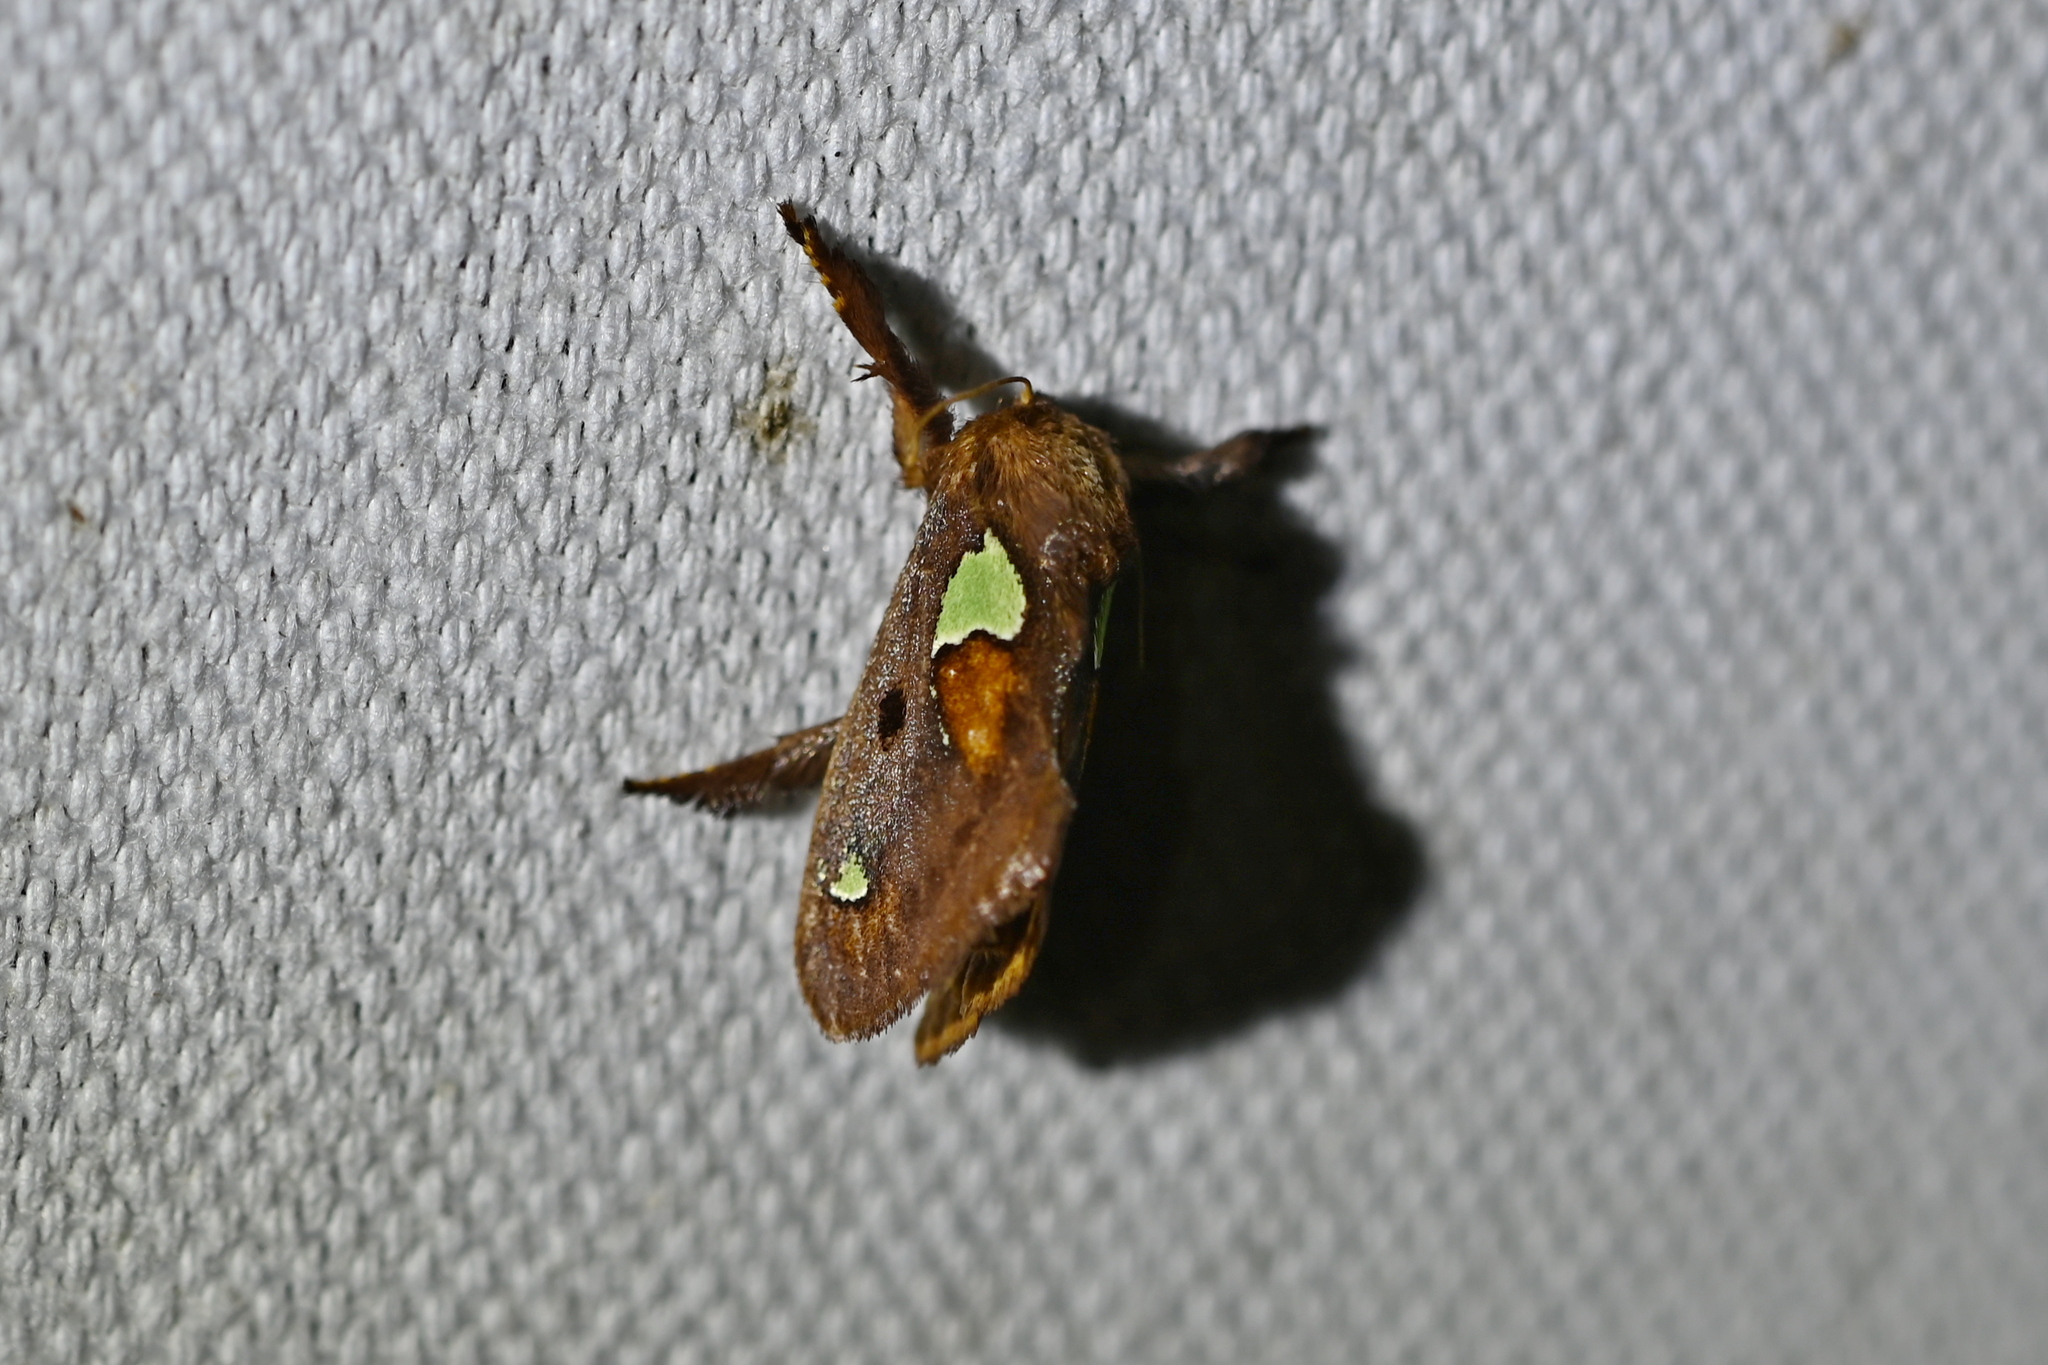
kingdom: Animalia
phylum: Arthropoda
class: Insecta
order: Lepidoptera
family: Limacodidae
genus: Euclea
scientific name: Euclea delphinii
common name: Spiny oak-slug moth
